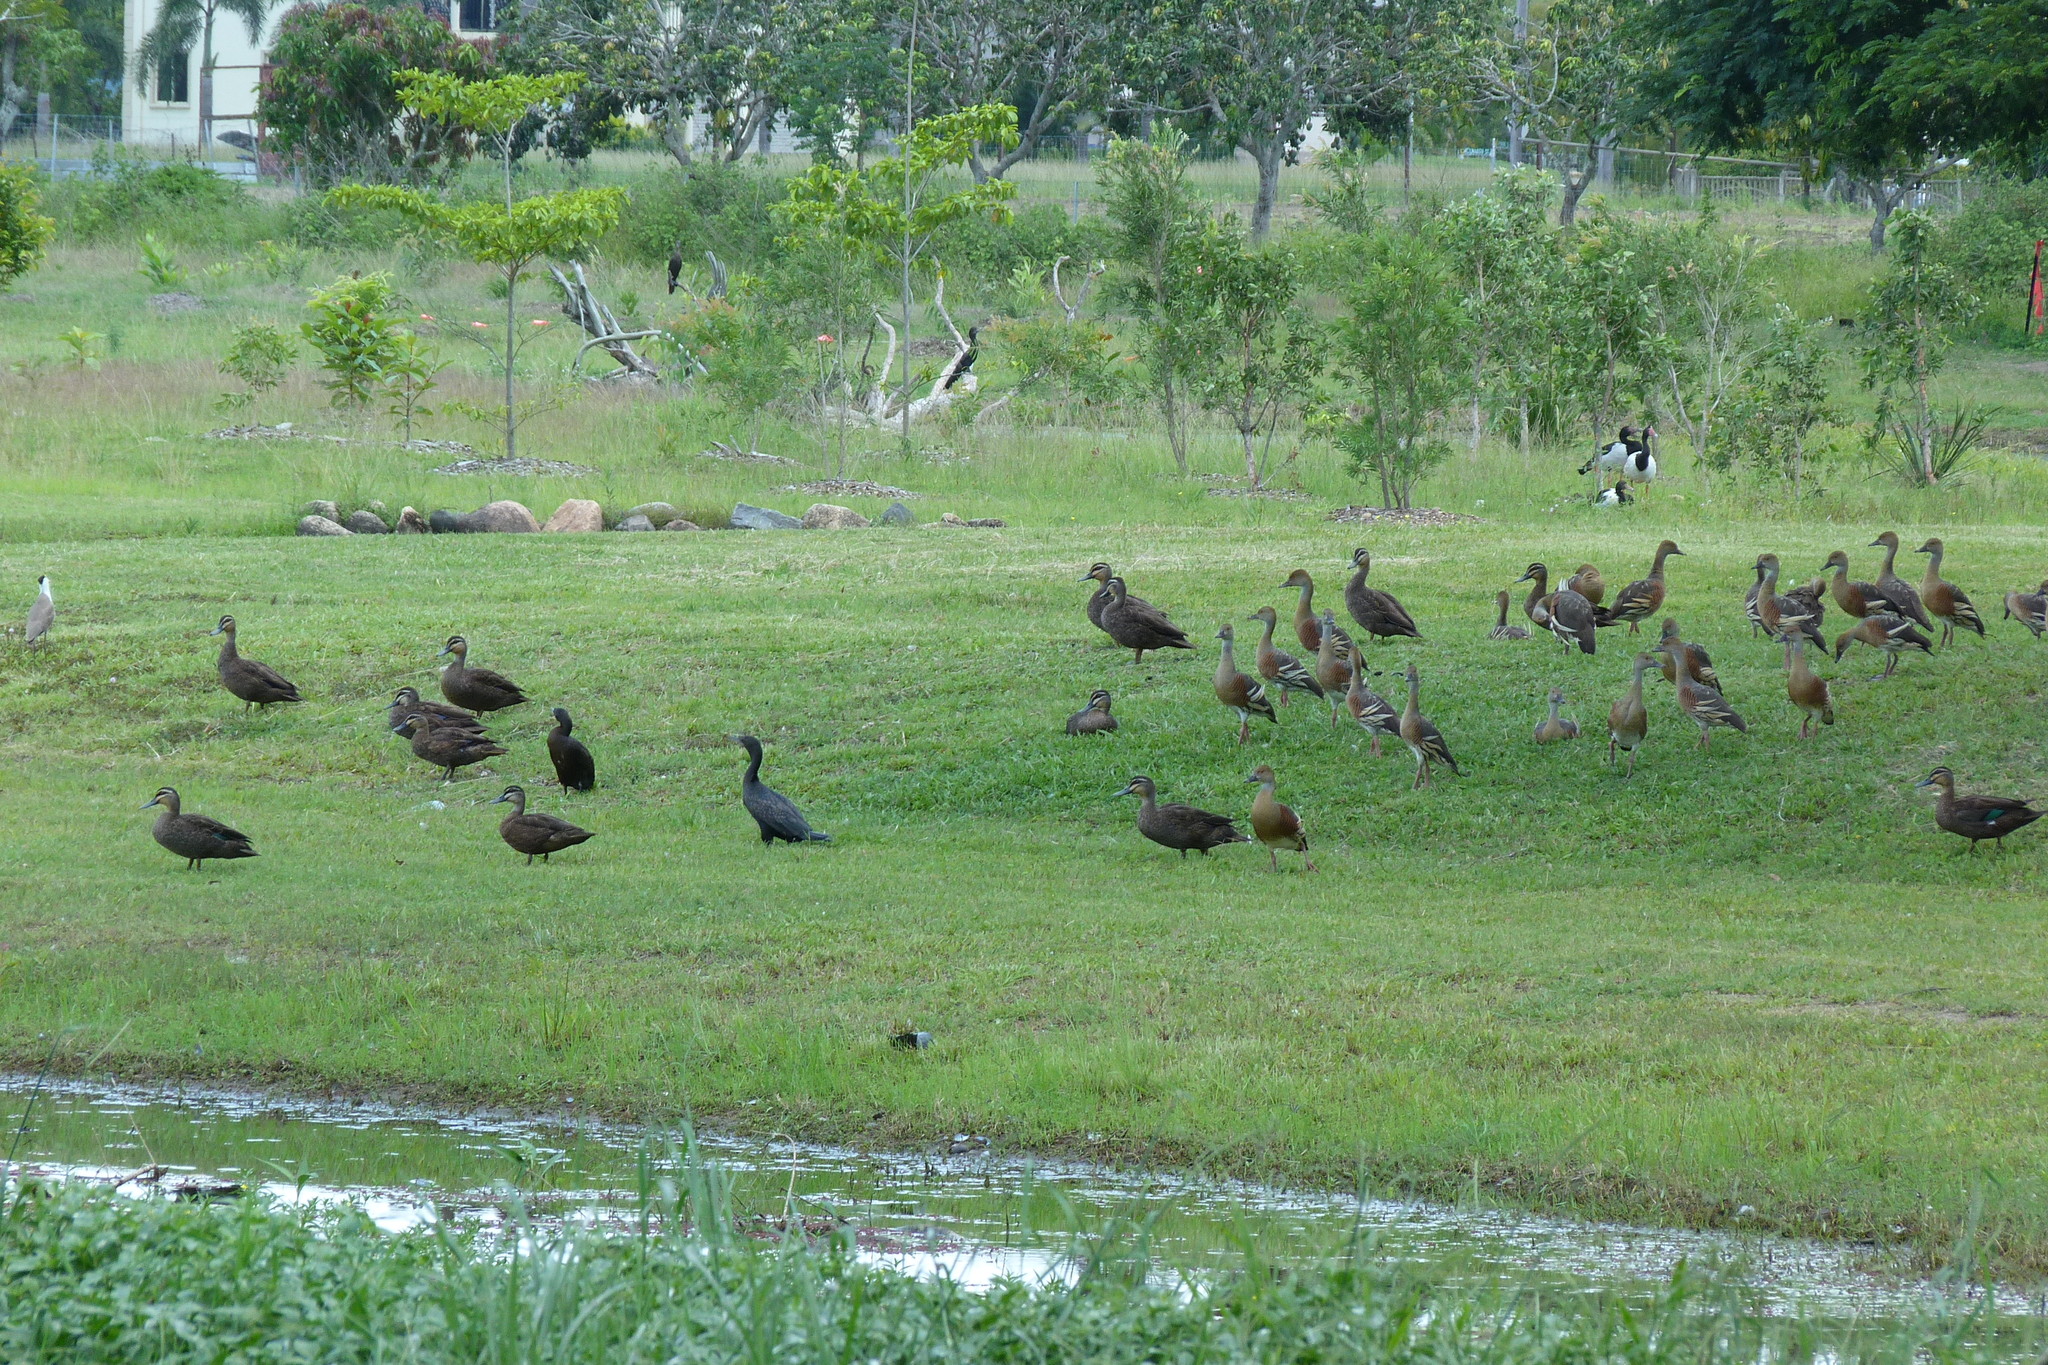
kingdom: Animalia
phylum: Chordata
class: Aves
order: Charadriiformes
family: Charadriidae
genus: Vanellus
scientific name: Vanellus miles
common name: Masked lapwing
